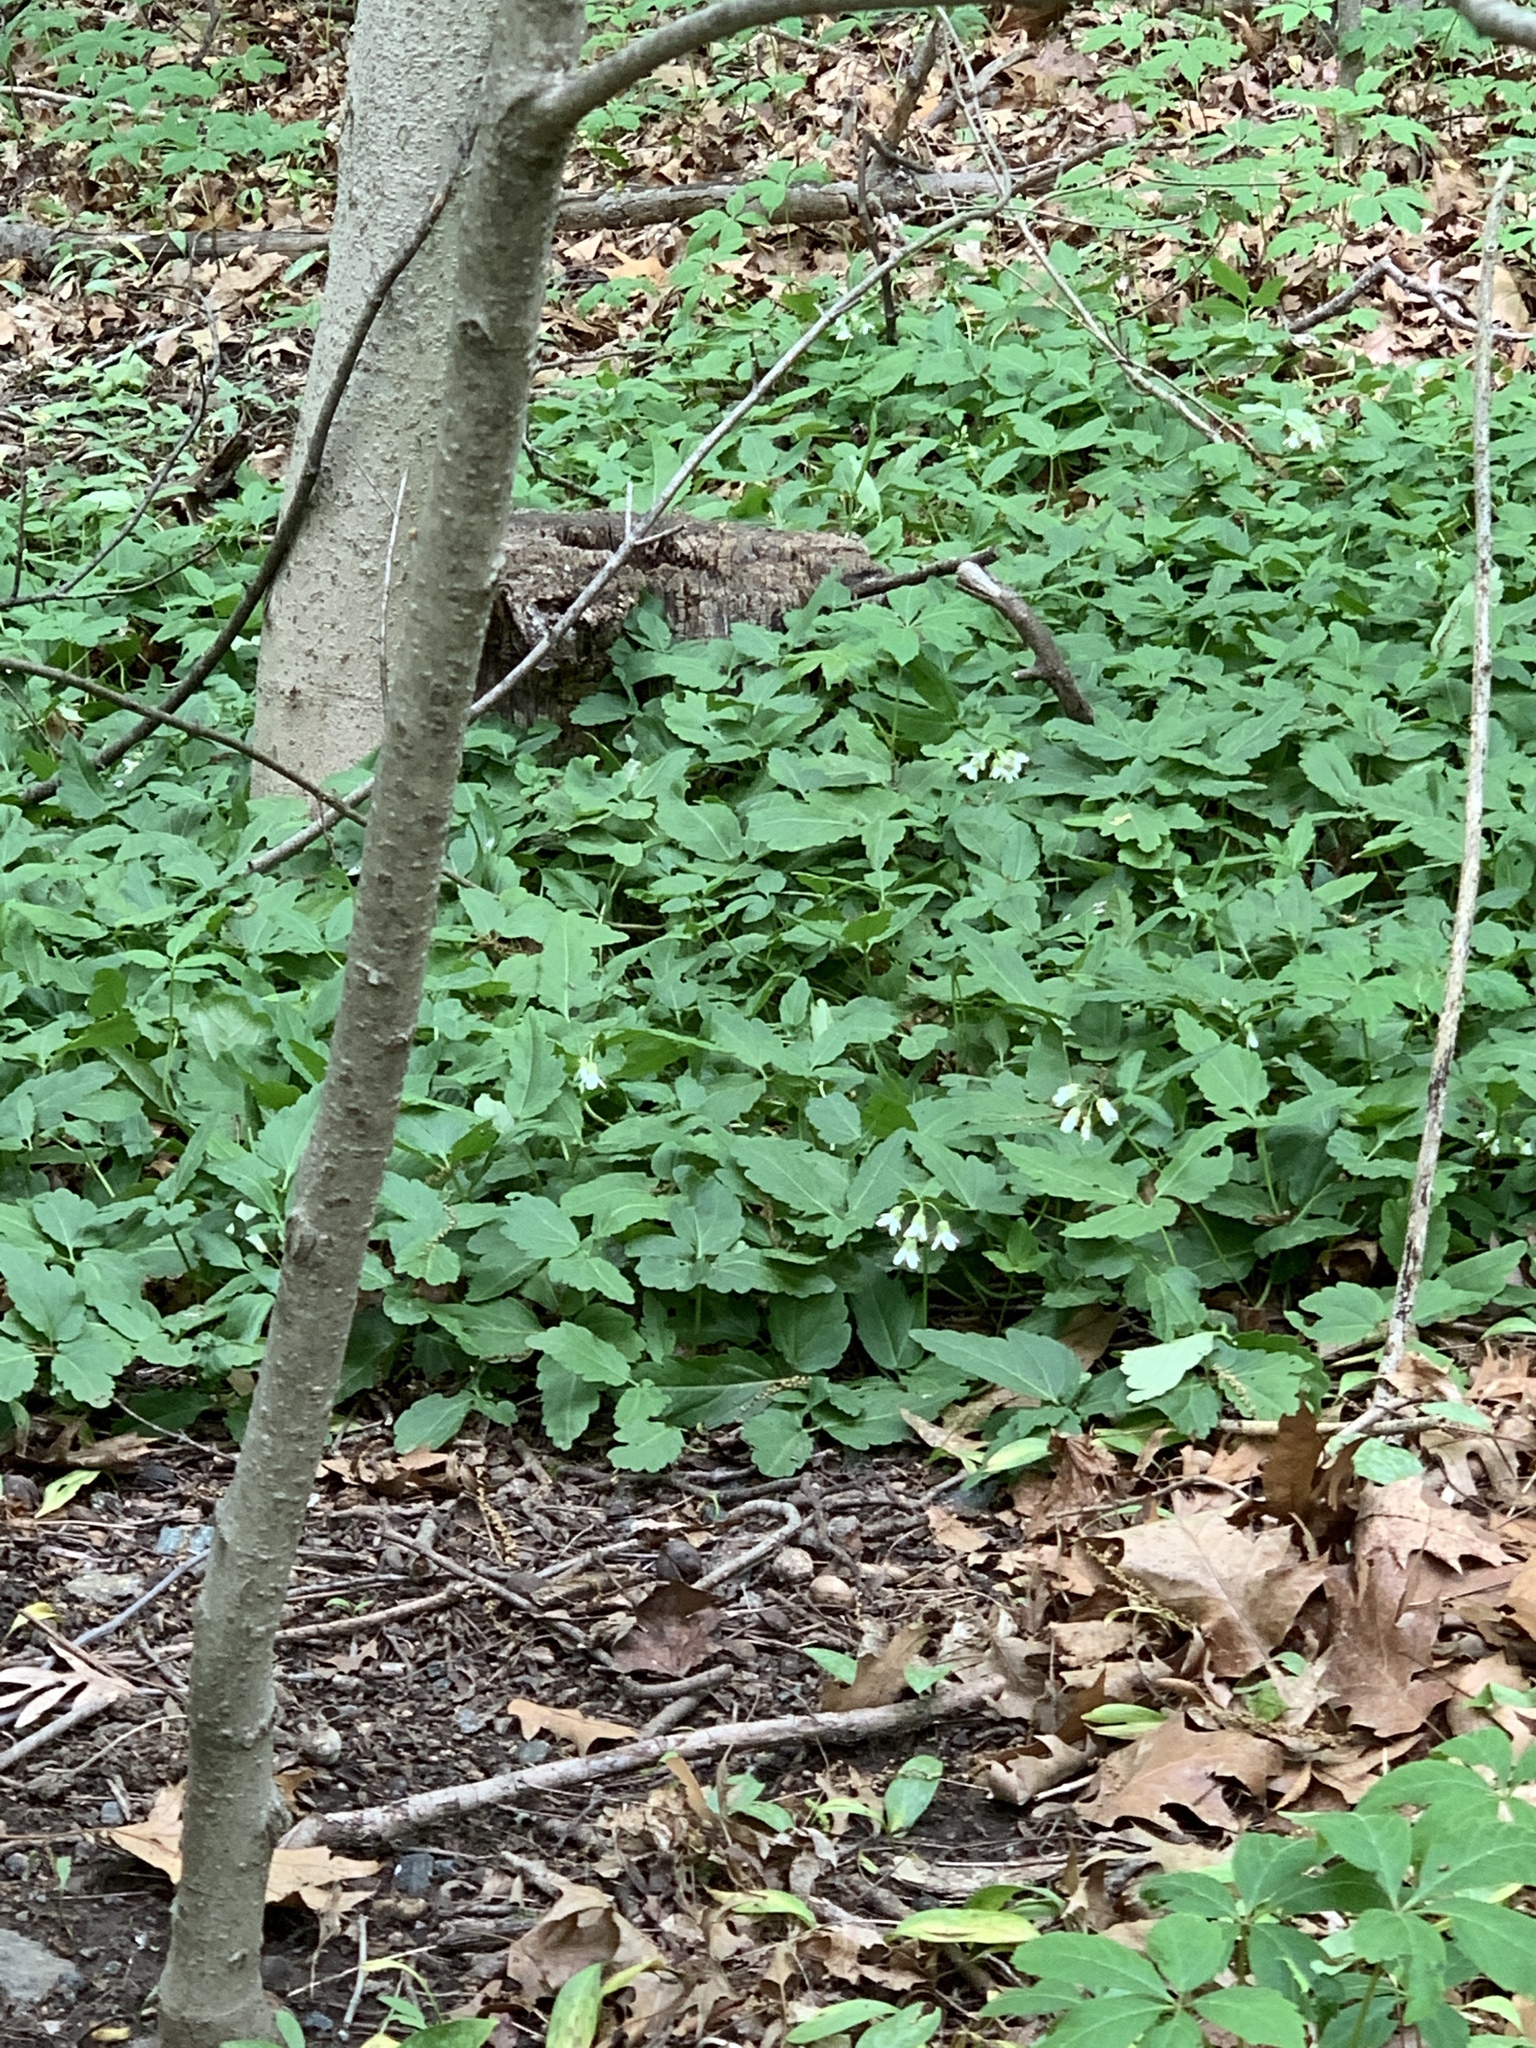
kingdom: Plantae
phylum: Tracheophyta
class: Magnoliopsida
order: Brassicales
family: Brassicaceae
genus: Cardamine
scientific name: Cardamine diphylla
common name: Broad-leaved toothwort
